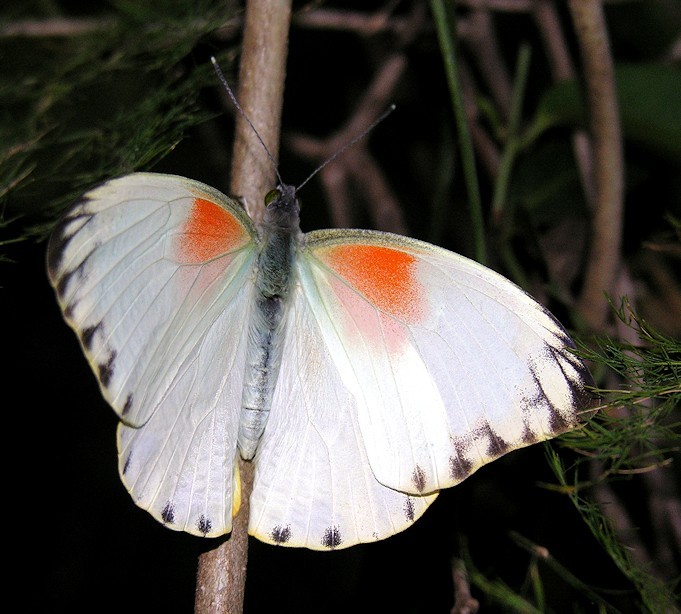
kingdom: Animalia
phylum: Arthropoda
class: Insecta
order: Lepidoptera
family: Pieridae
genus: Nepheronia
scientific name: Nepheronia argia
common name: Large vagrant
